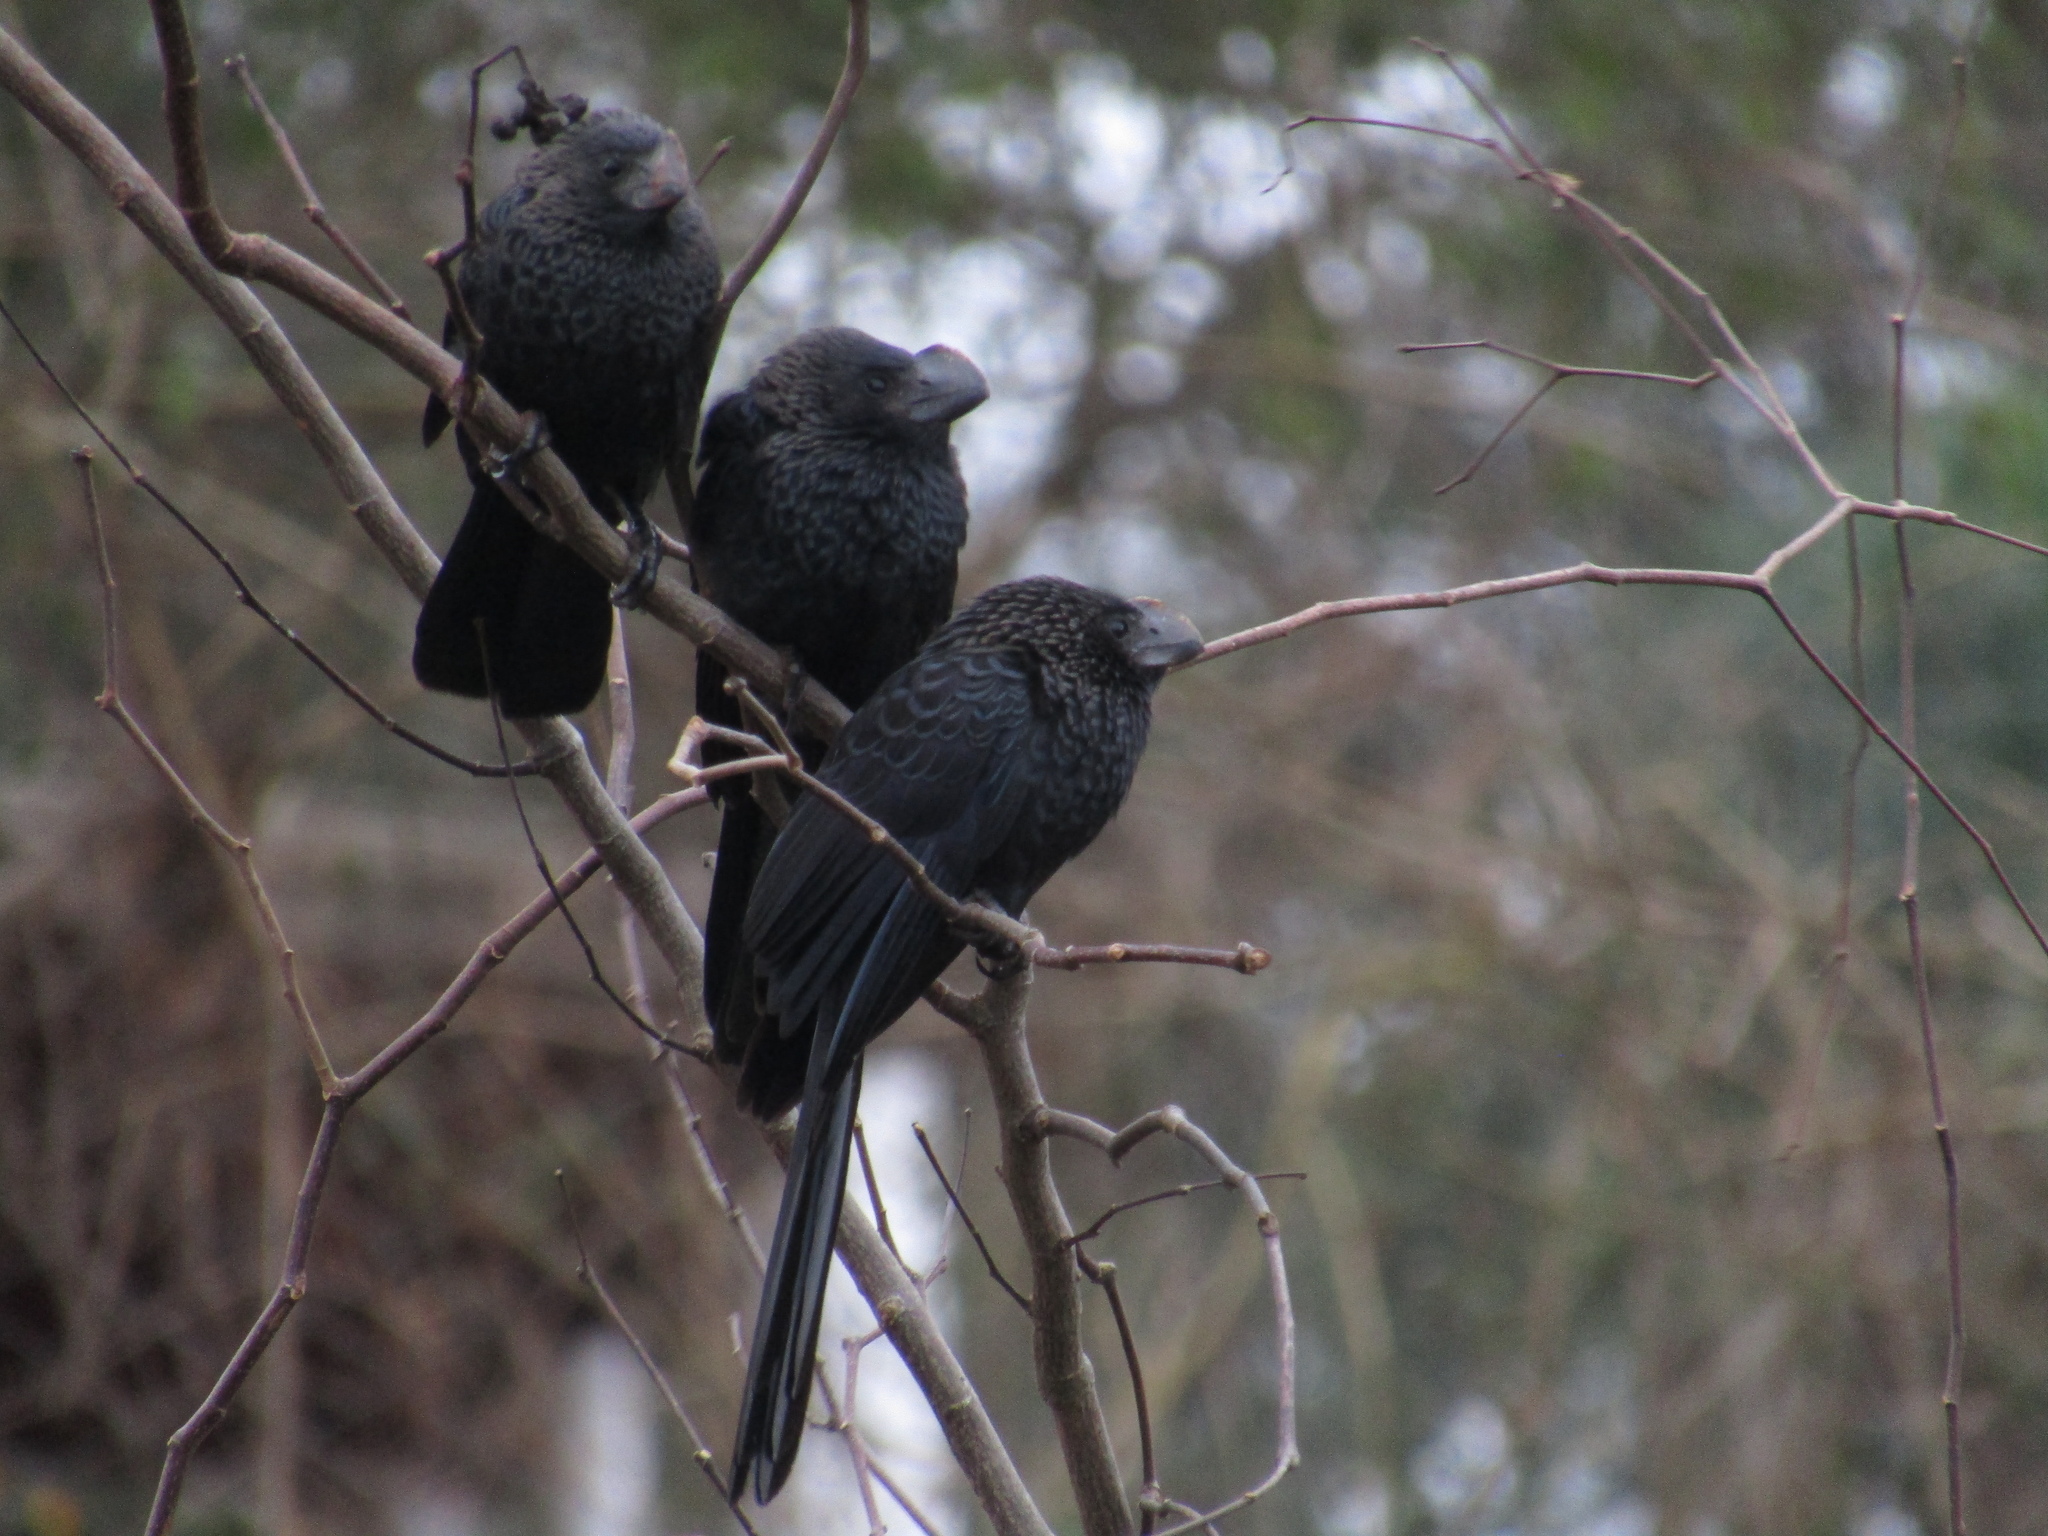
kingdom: Animalia
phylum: Chordata
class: Aves
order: Cuculiformes
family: Cuculidae
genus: Crotophaga
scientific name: Crotophaga ani
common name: Smooth-billed ani
